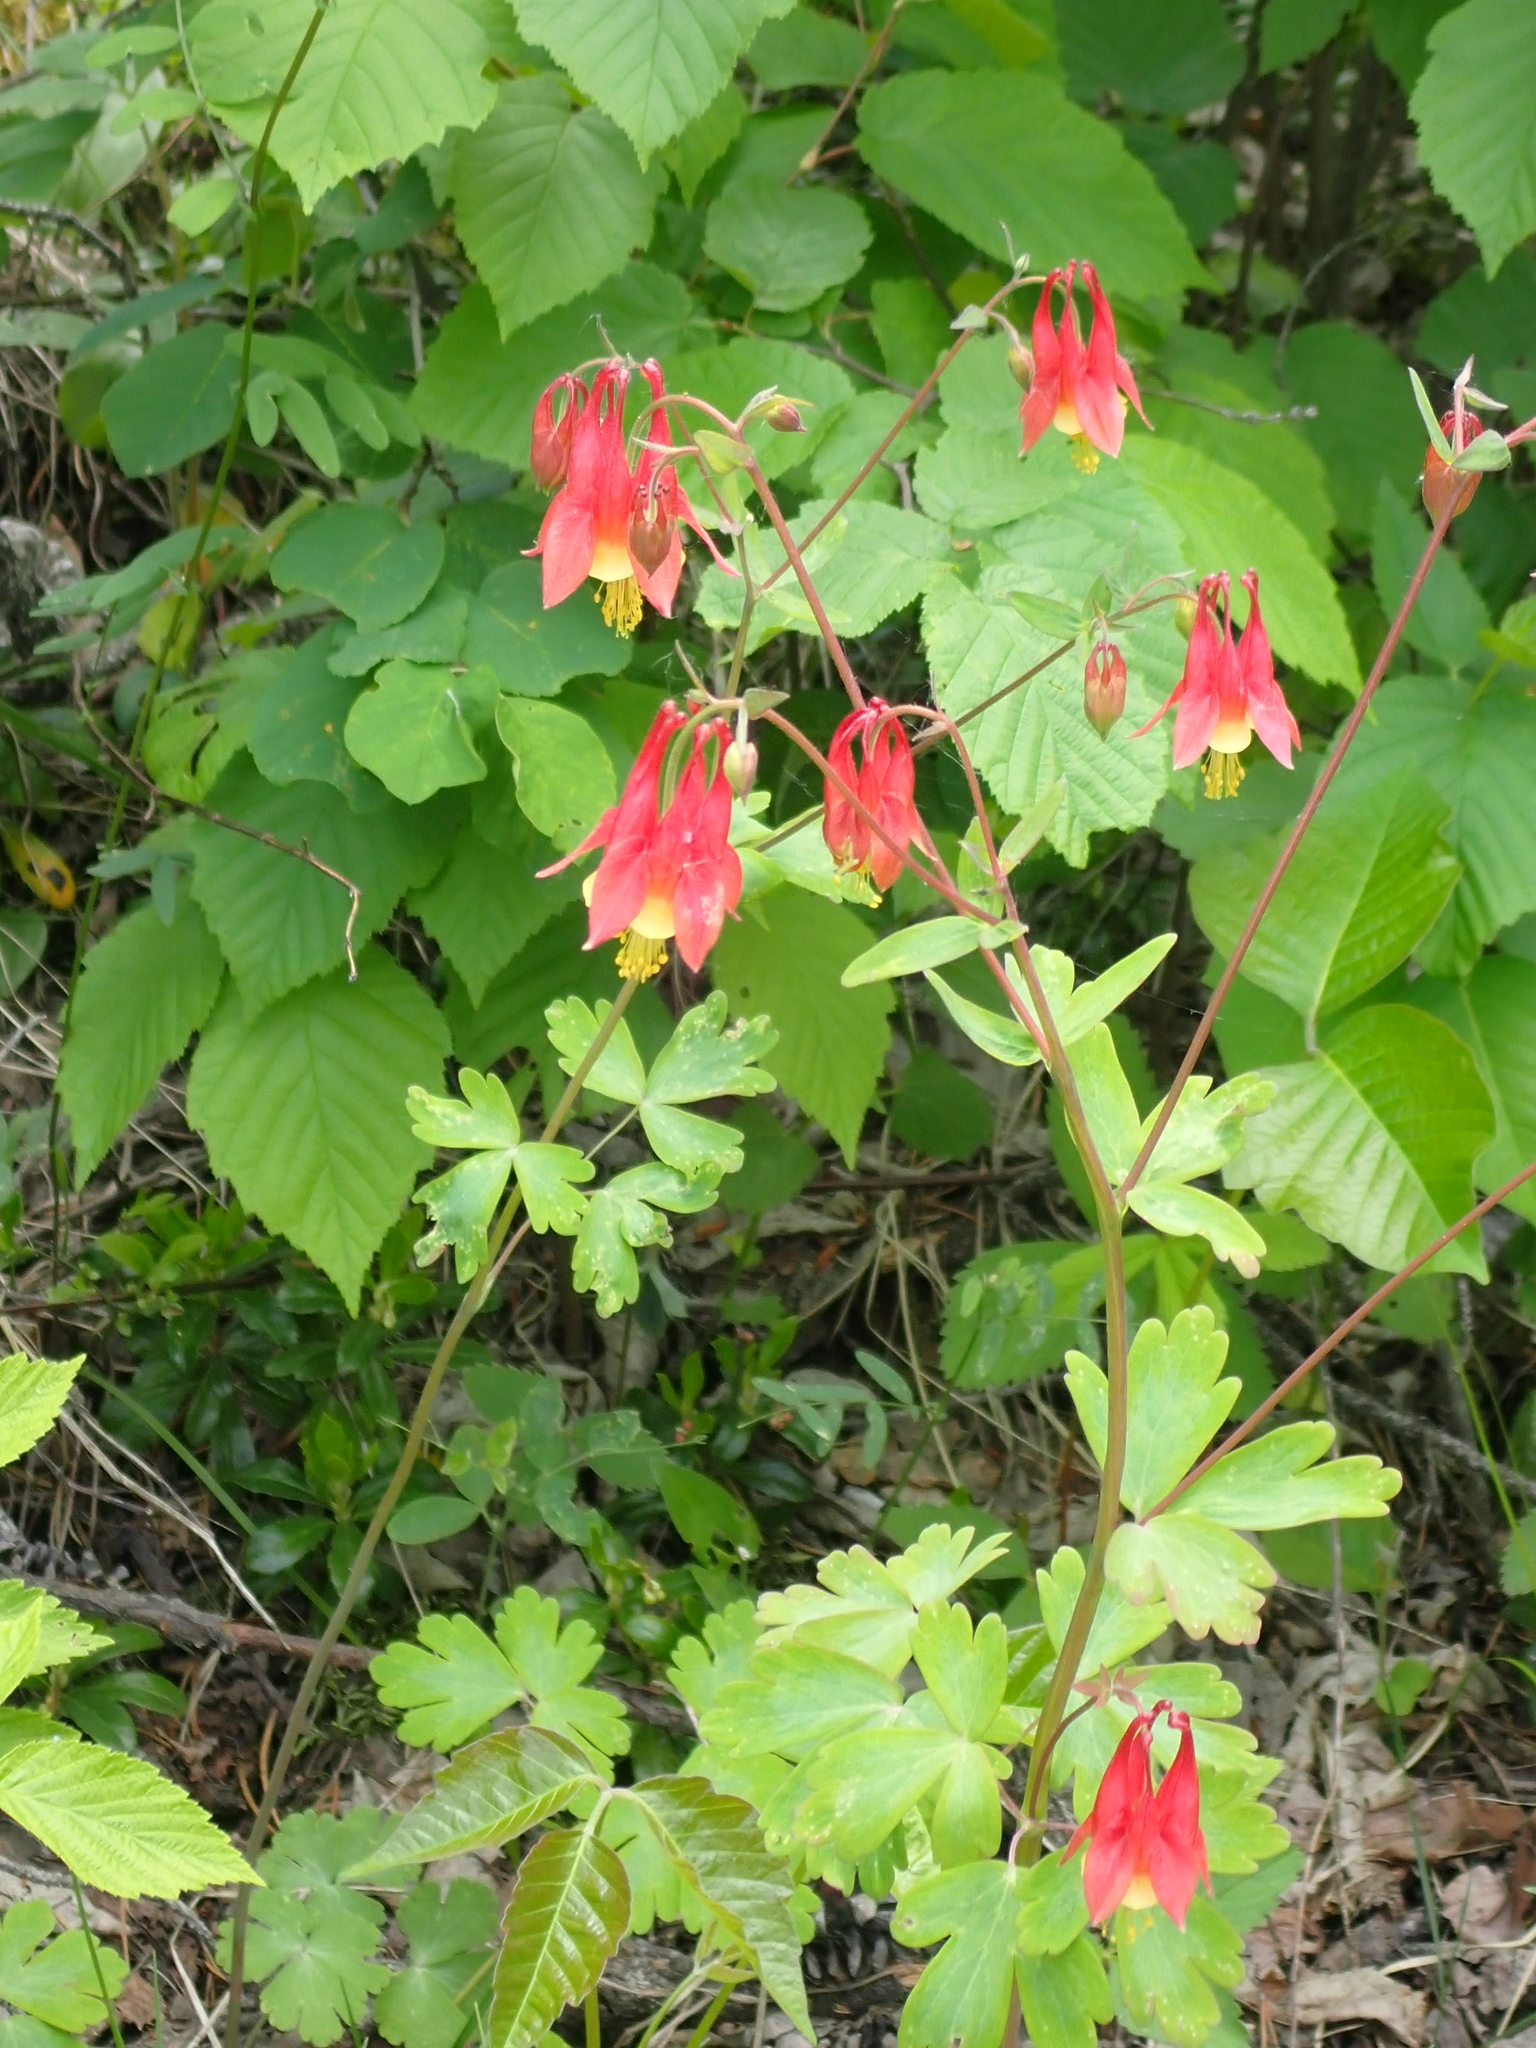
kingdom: Plantae
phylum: Tracheophyta
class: Magnoliopsida
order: Ranunculales
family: Ranunculaceae
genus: Aquilegia
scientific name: Aquilegia canadensis
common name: American columbine
